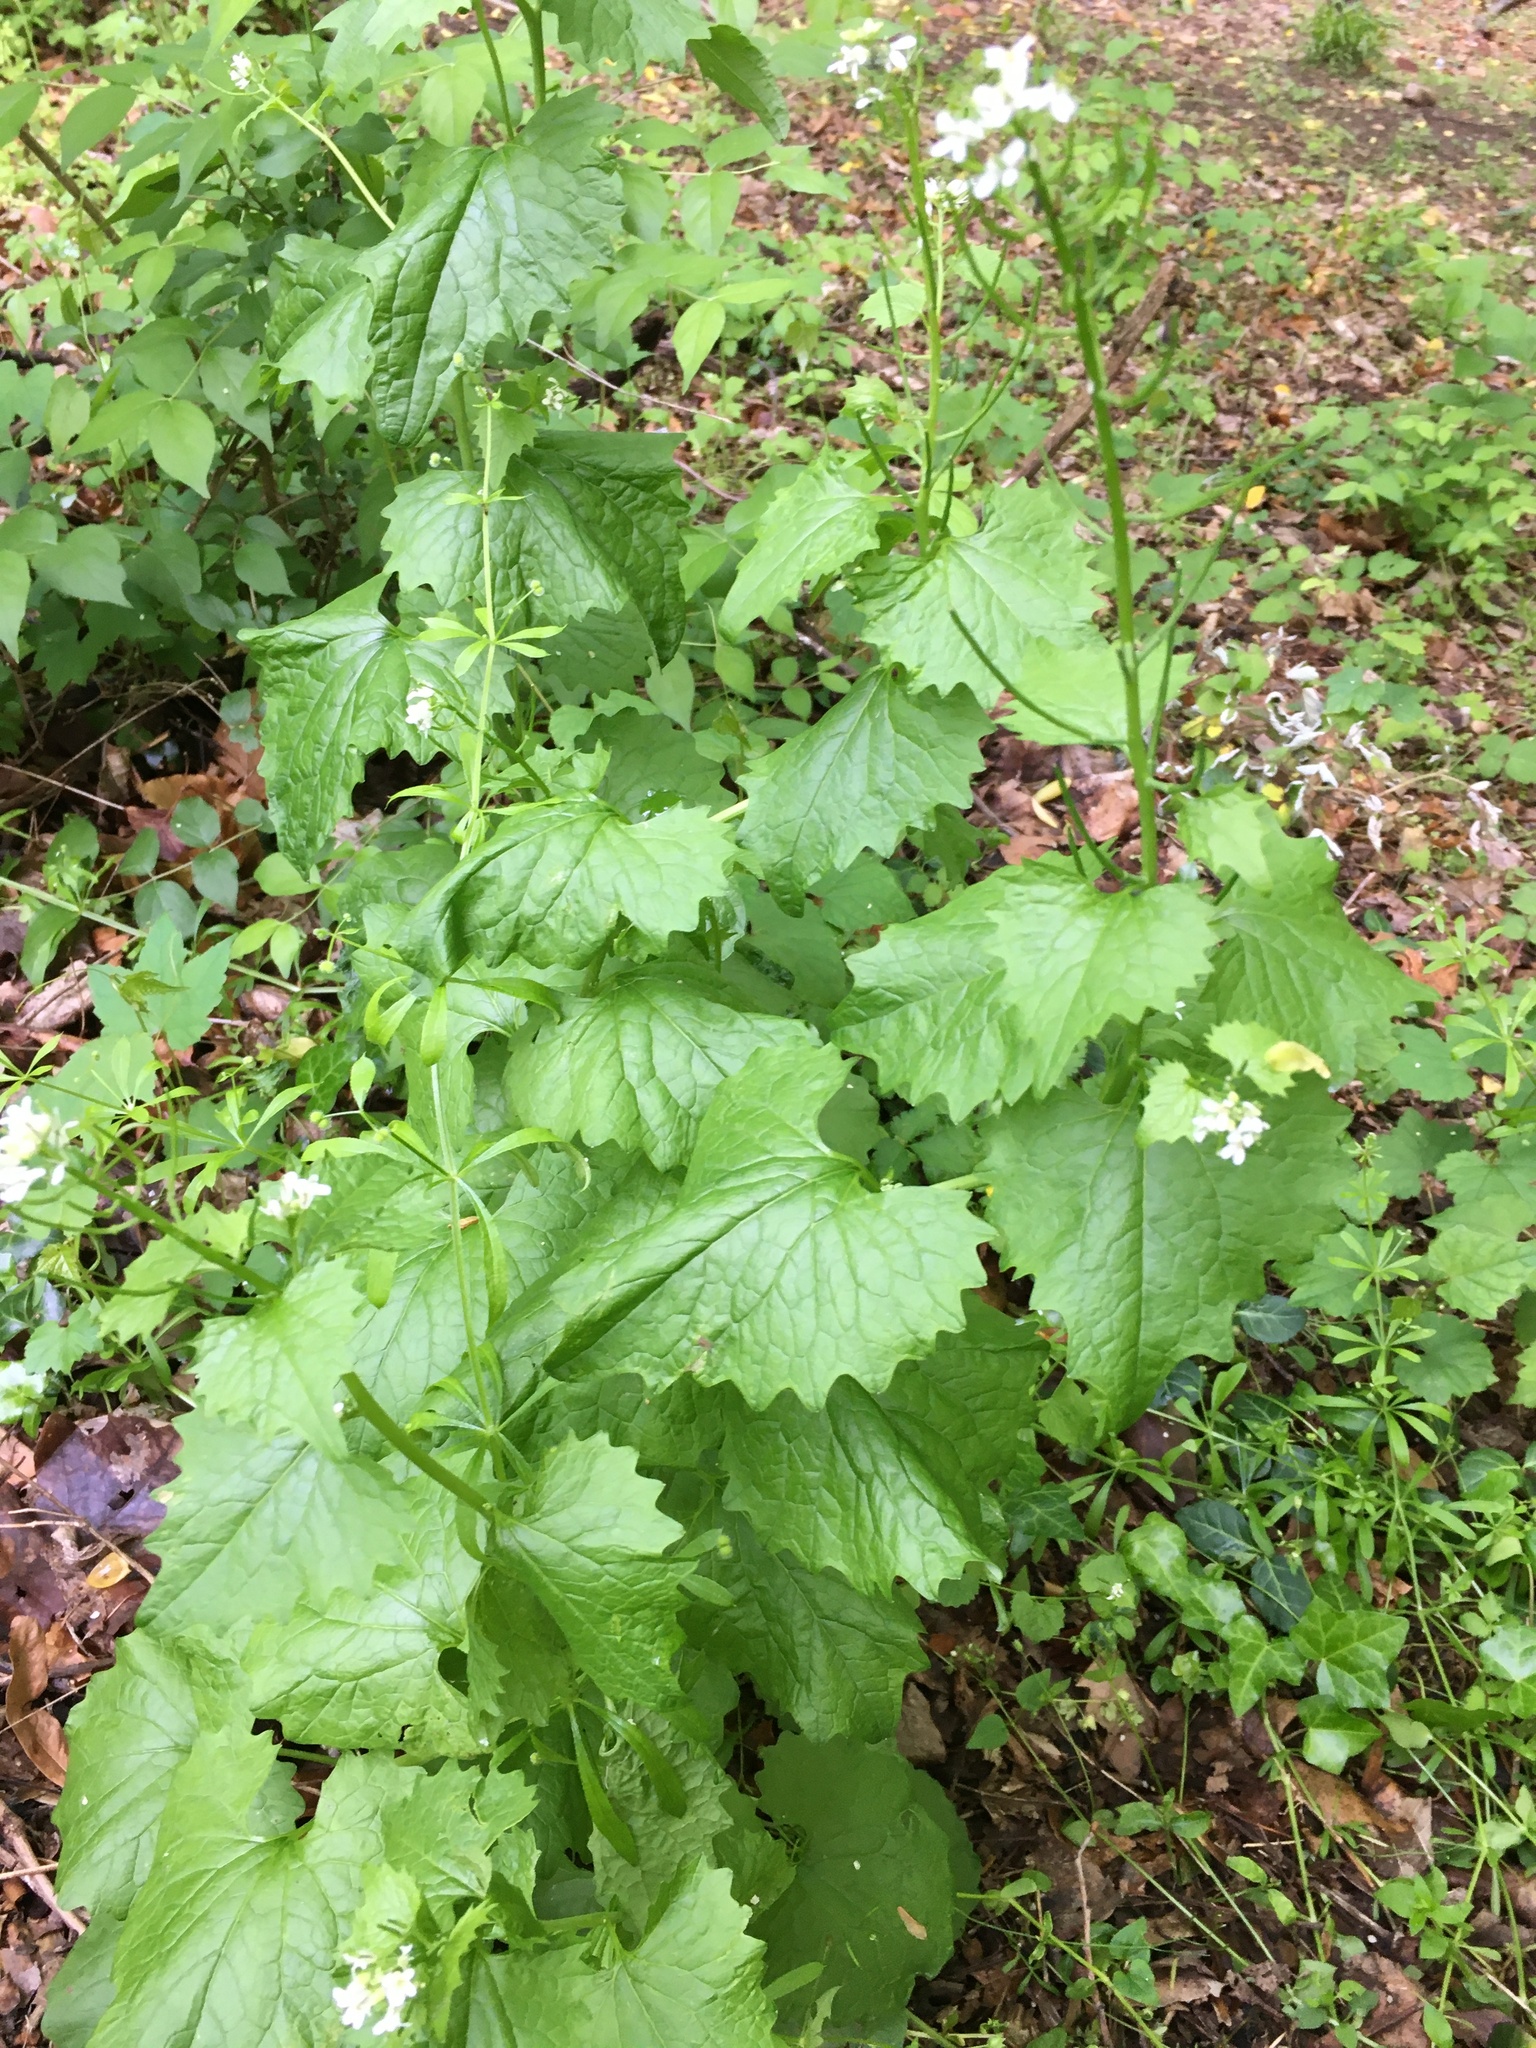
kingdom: Plantae
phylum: Tracheophyta
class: Magnoliopsida
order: Brassicales
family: Brassicaceae
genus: Alliaria
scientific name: Alliaria petiolata
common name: Garlic mustard
